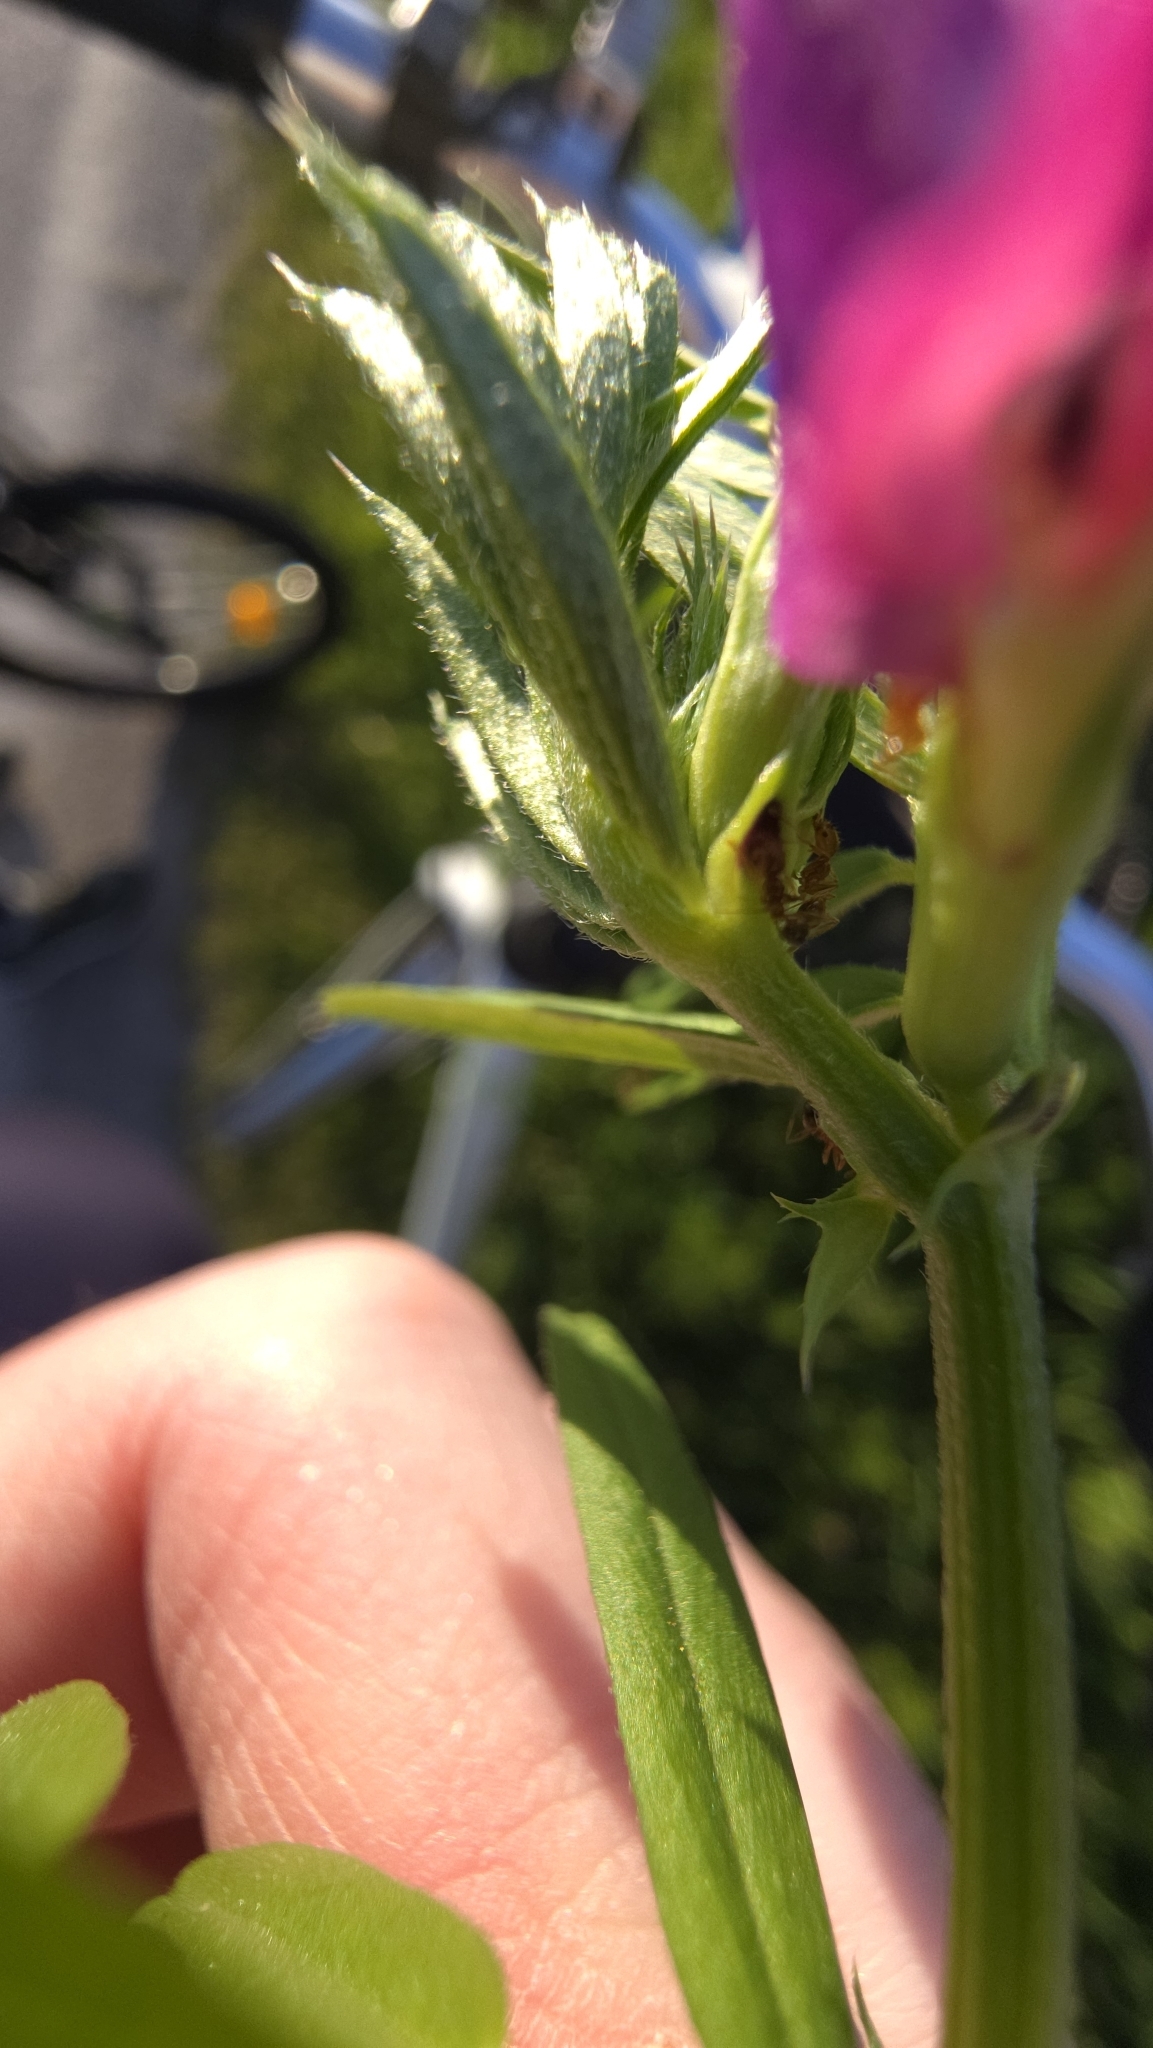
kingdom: Animalia
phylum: Arthropoda
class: Insecta
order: Hymenoptera
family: Formicidae
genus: Pheidole
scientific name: Pheidole pallidula
